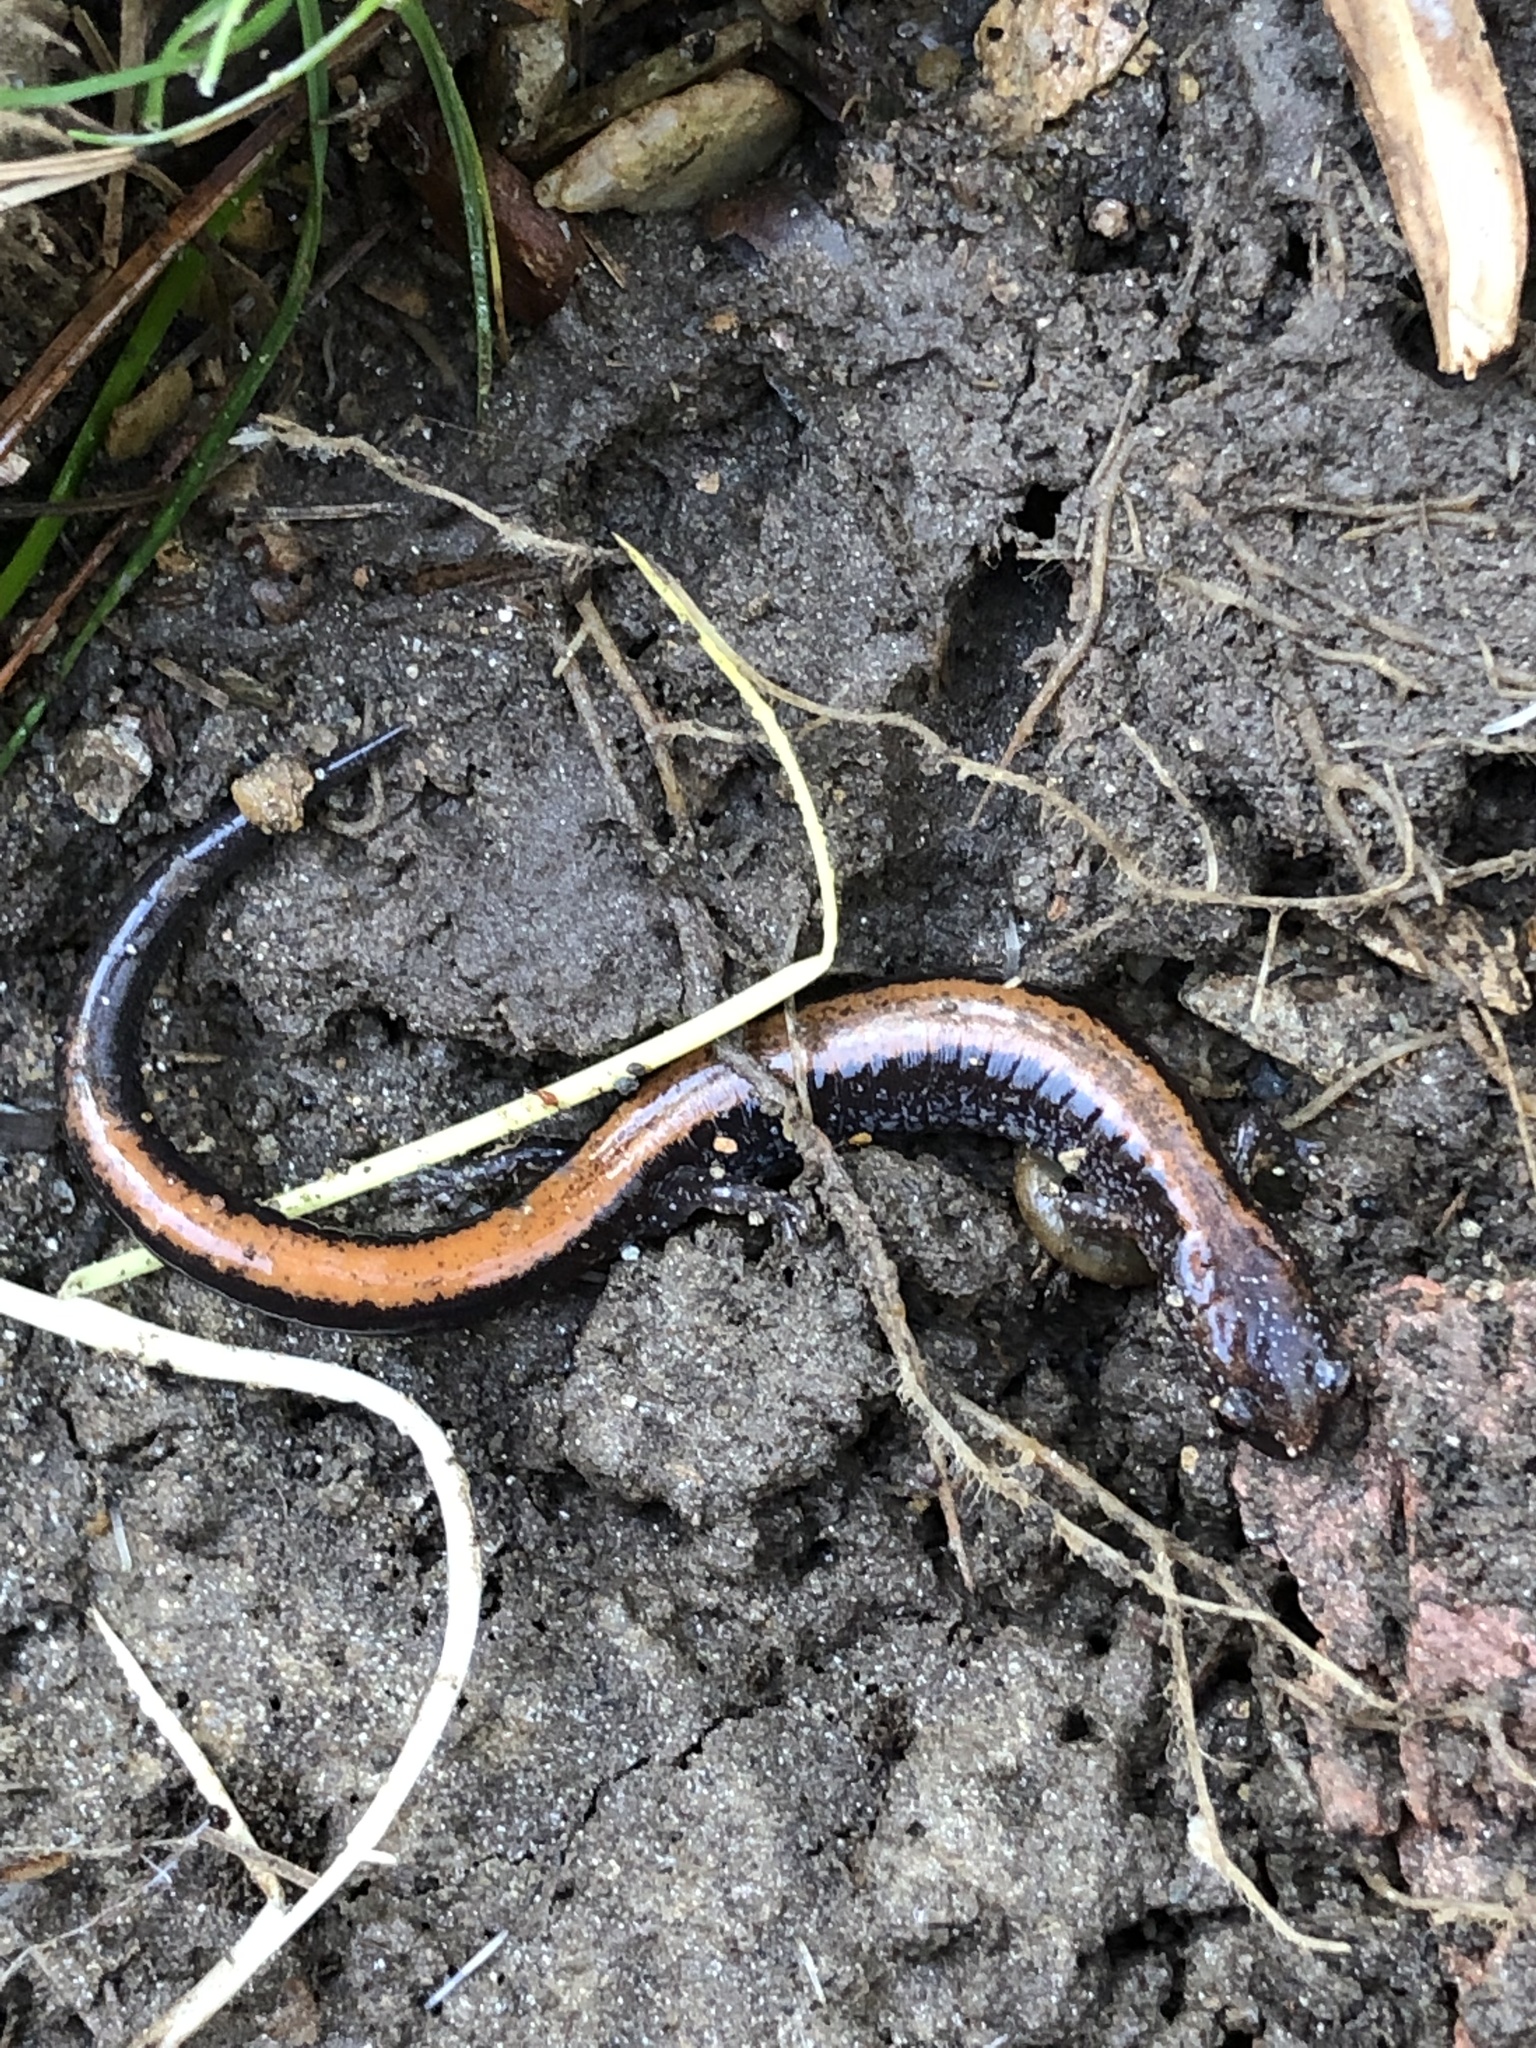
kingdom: Animalia
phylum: Chordata
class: Amphibia
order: Caudata
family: Plethodontidae
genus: Plethodon
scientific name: Plethodon cinereus
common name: Redback salamander
